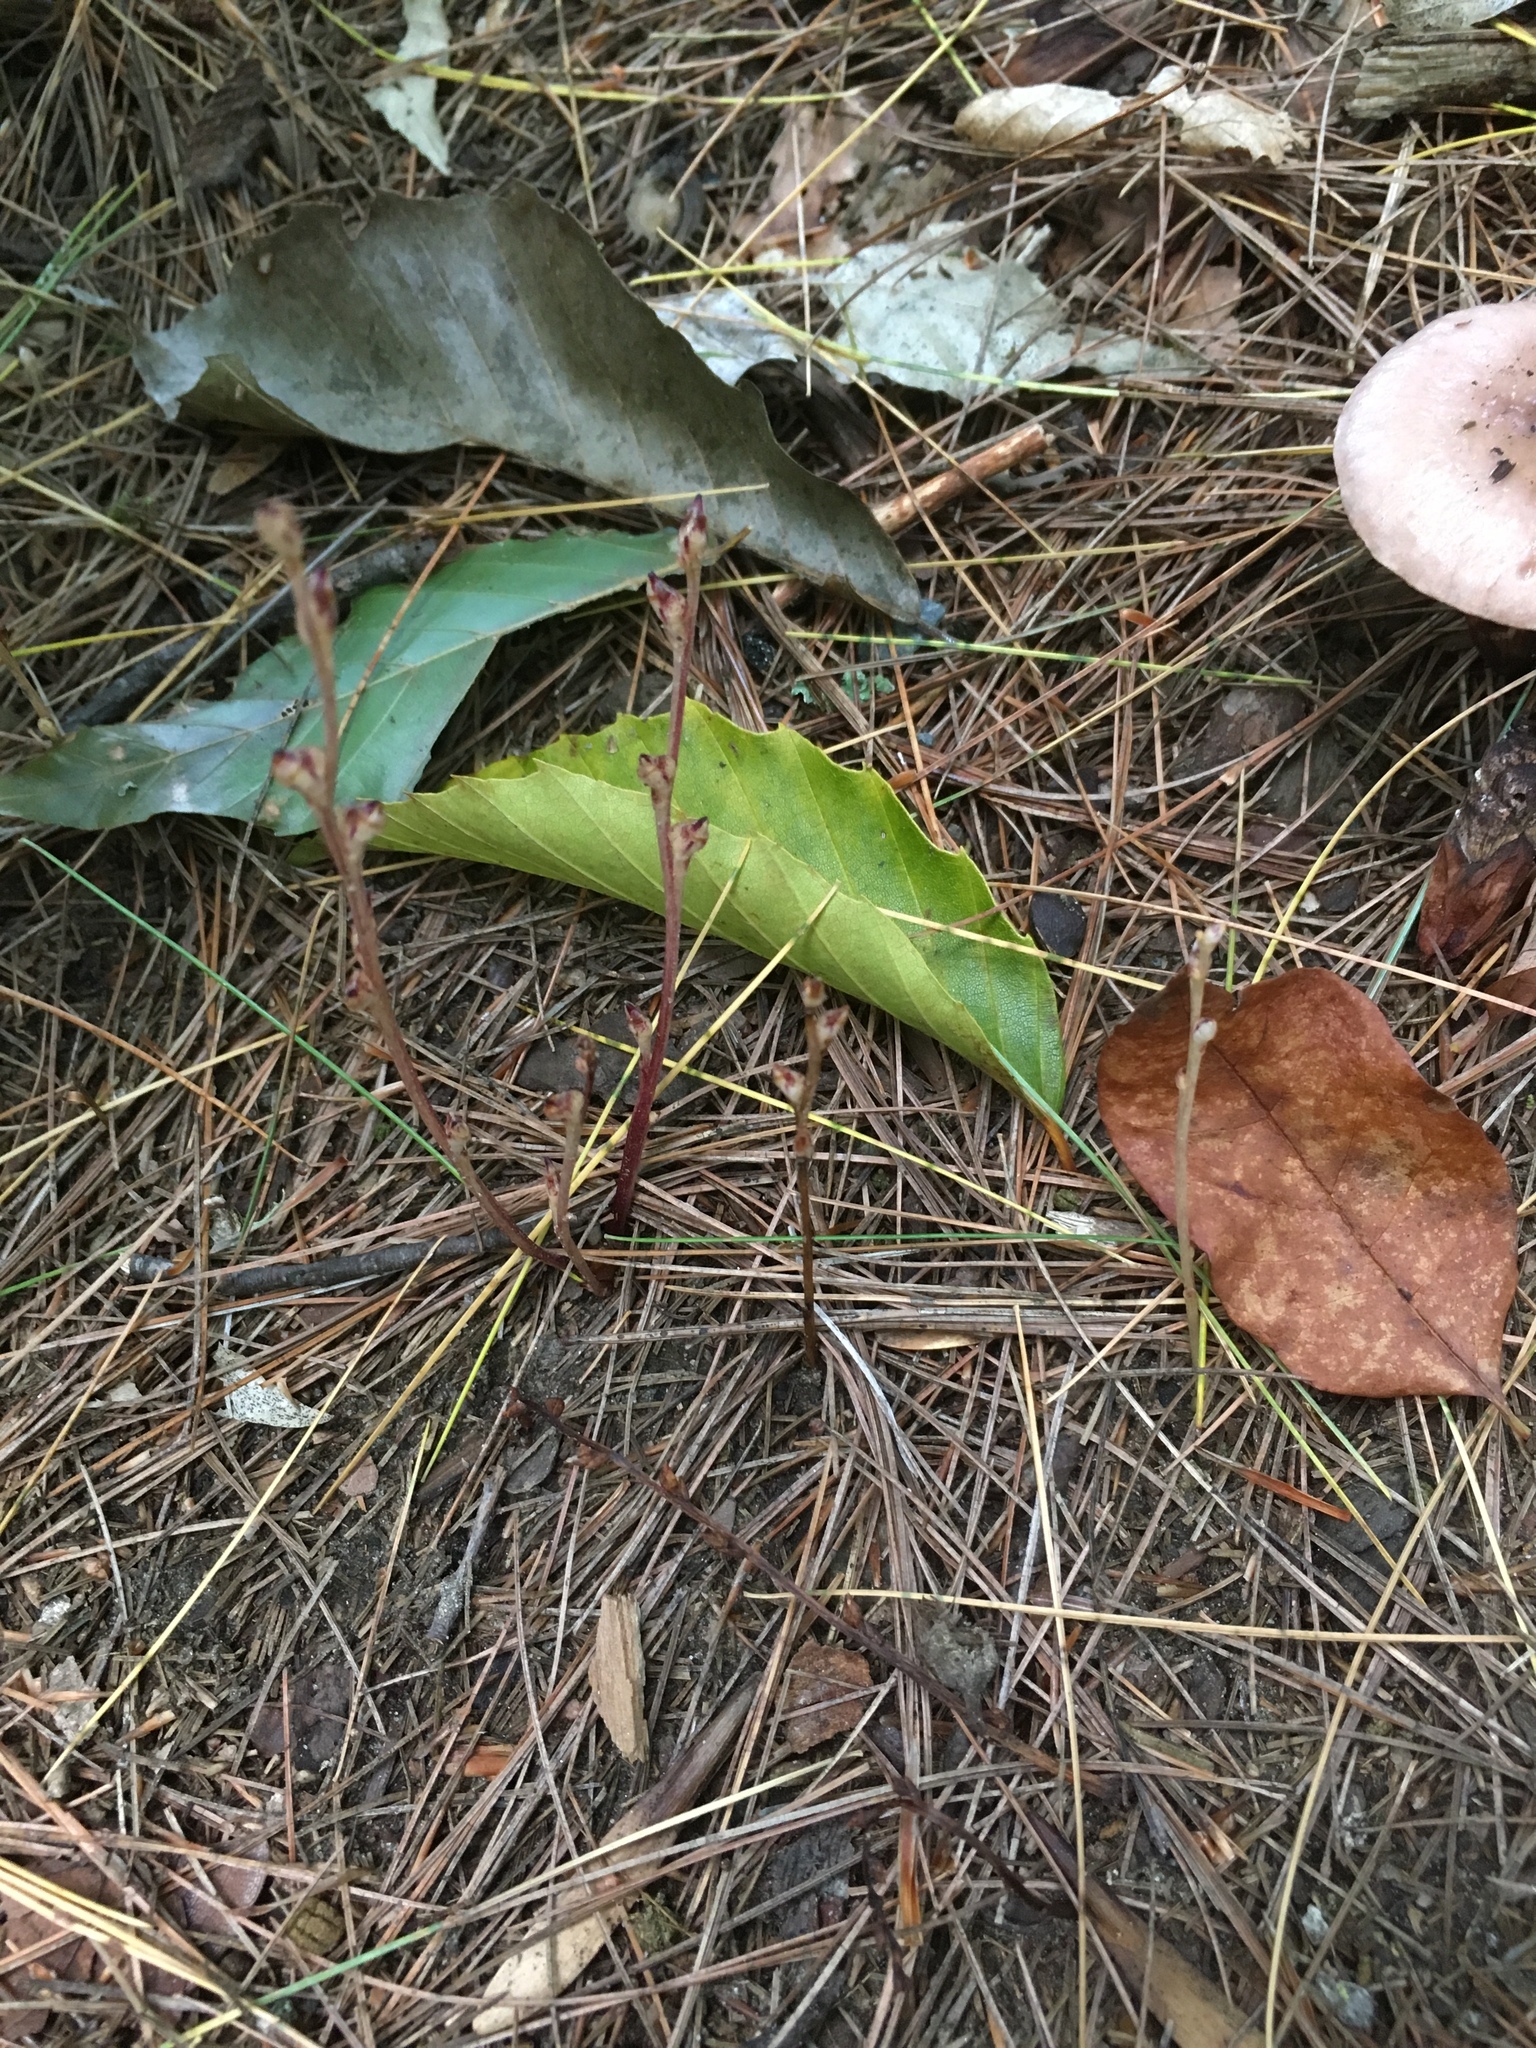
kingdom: Plantae
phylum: Tracheophyta
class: Magnoliopsida
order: Lamiales
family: Orobanchaceae
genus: Epifagus
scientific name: Epifagus virginiana
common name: Beechdrops
